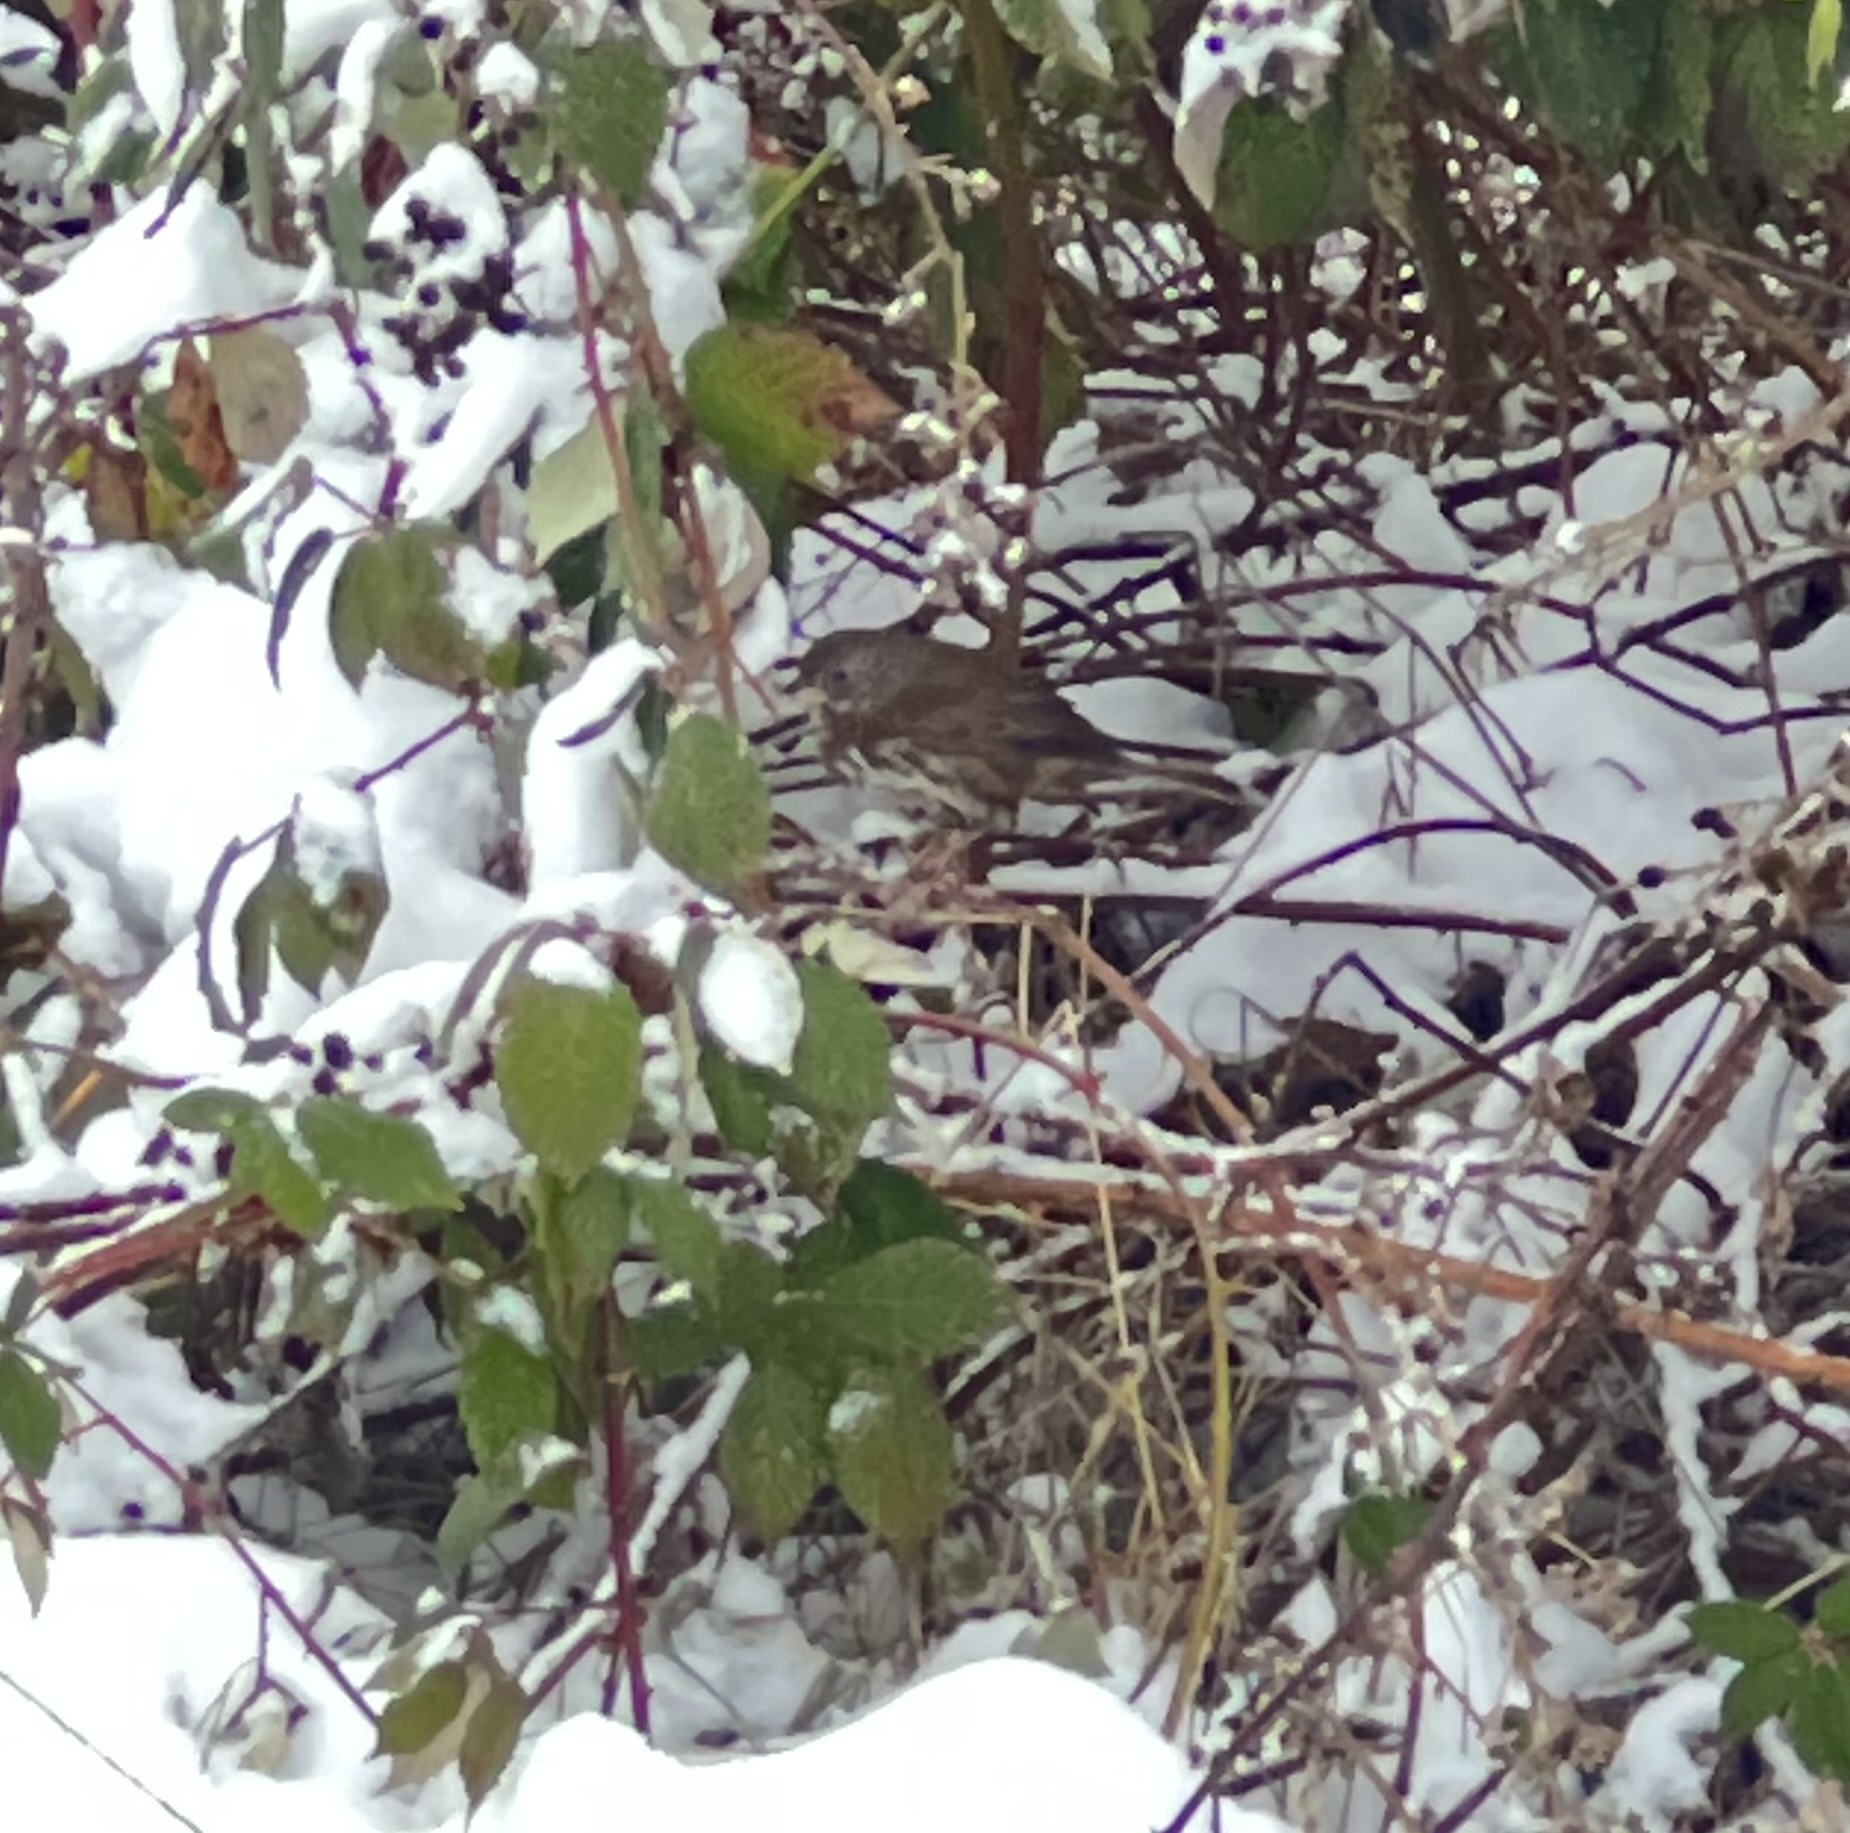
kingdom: Animalia
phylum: Chordata
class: Aves
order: Passeriformes
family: Passerellidae
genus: Passerella
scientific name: Passerella iliaca
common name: Fox sparrow
